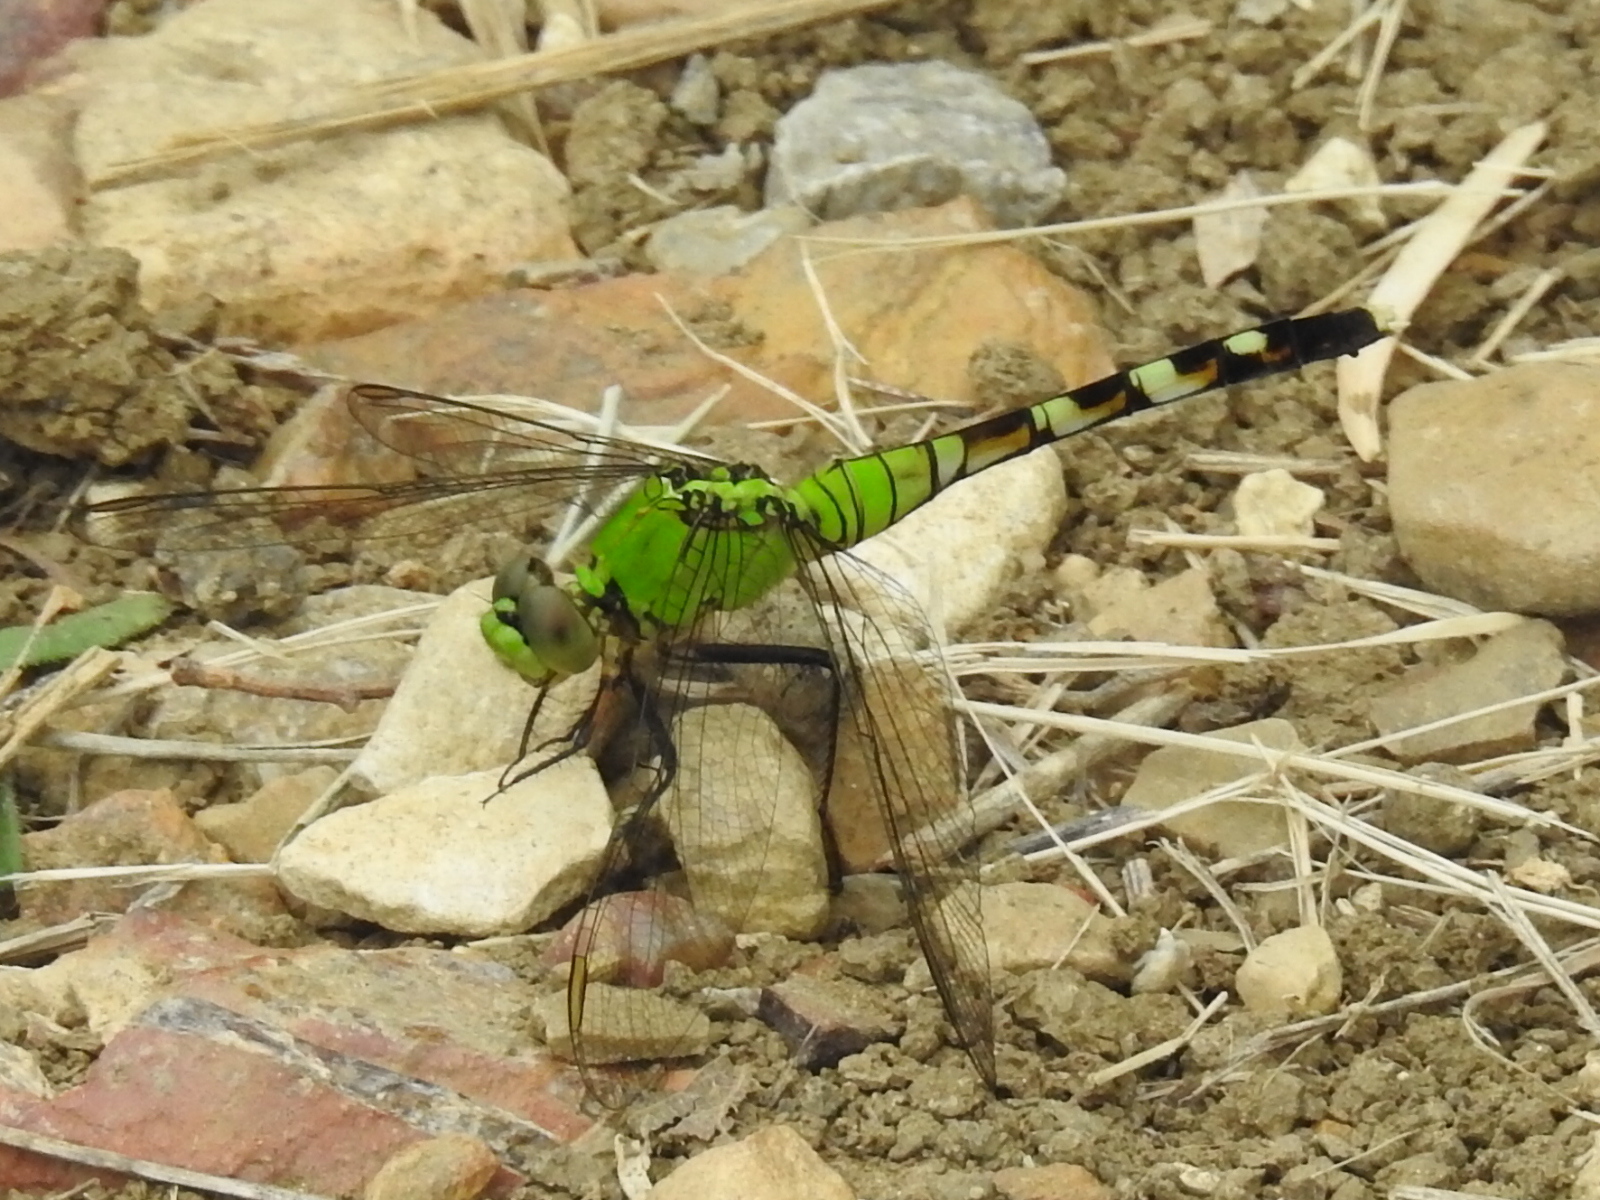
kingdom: Animalia
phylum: Arthropoda
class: Insecta
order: Odonata
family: Libellulidae
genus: Erythemis
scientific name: Erythemis simplicicollis
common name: Eastern pondhawk
